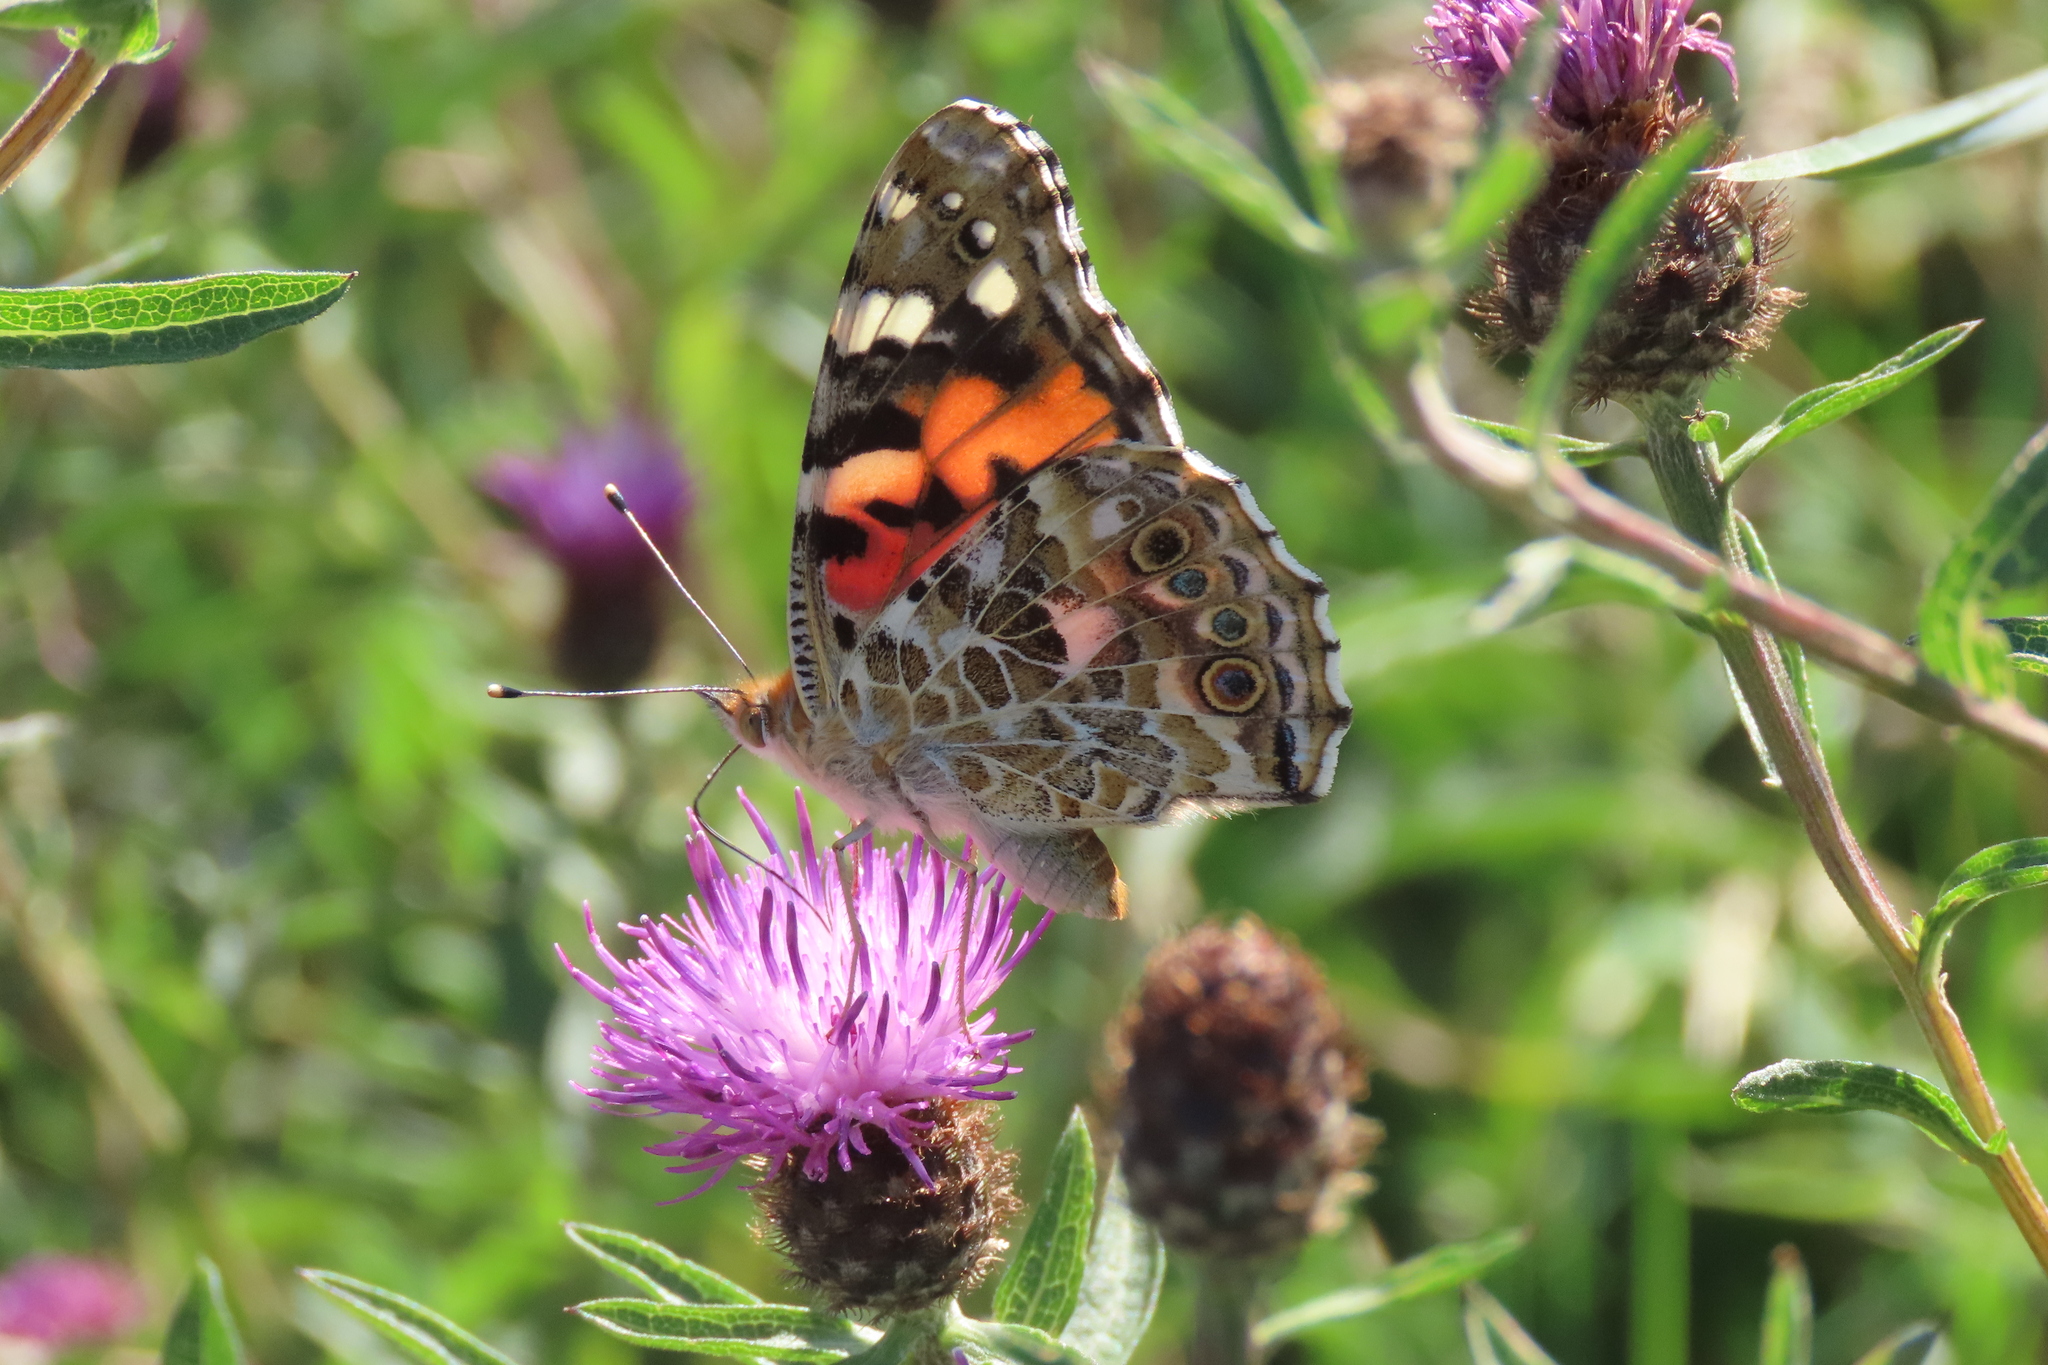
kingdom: Animalia
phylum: Arthropoda
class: Insecta
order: Lepidoptera
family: Nymphalidae
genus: Vanessa
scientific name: Vanessa cardui
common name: Painted lady
